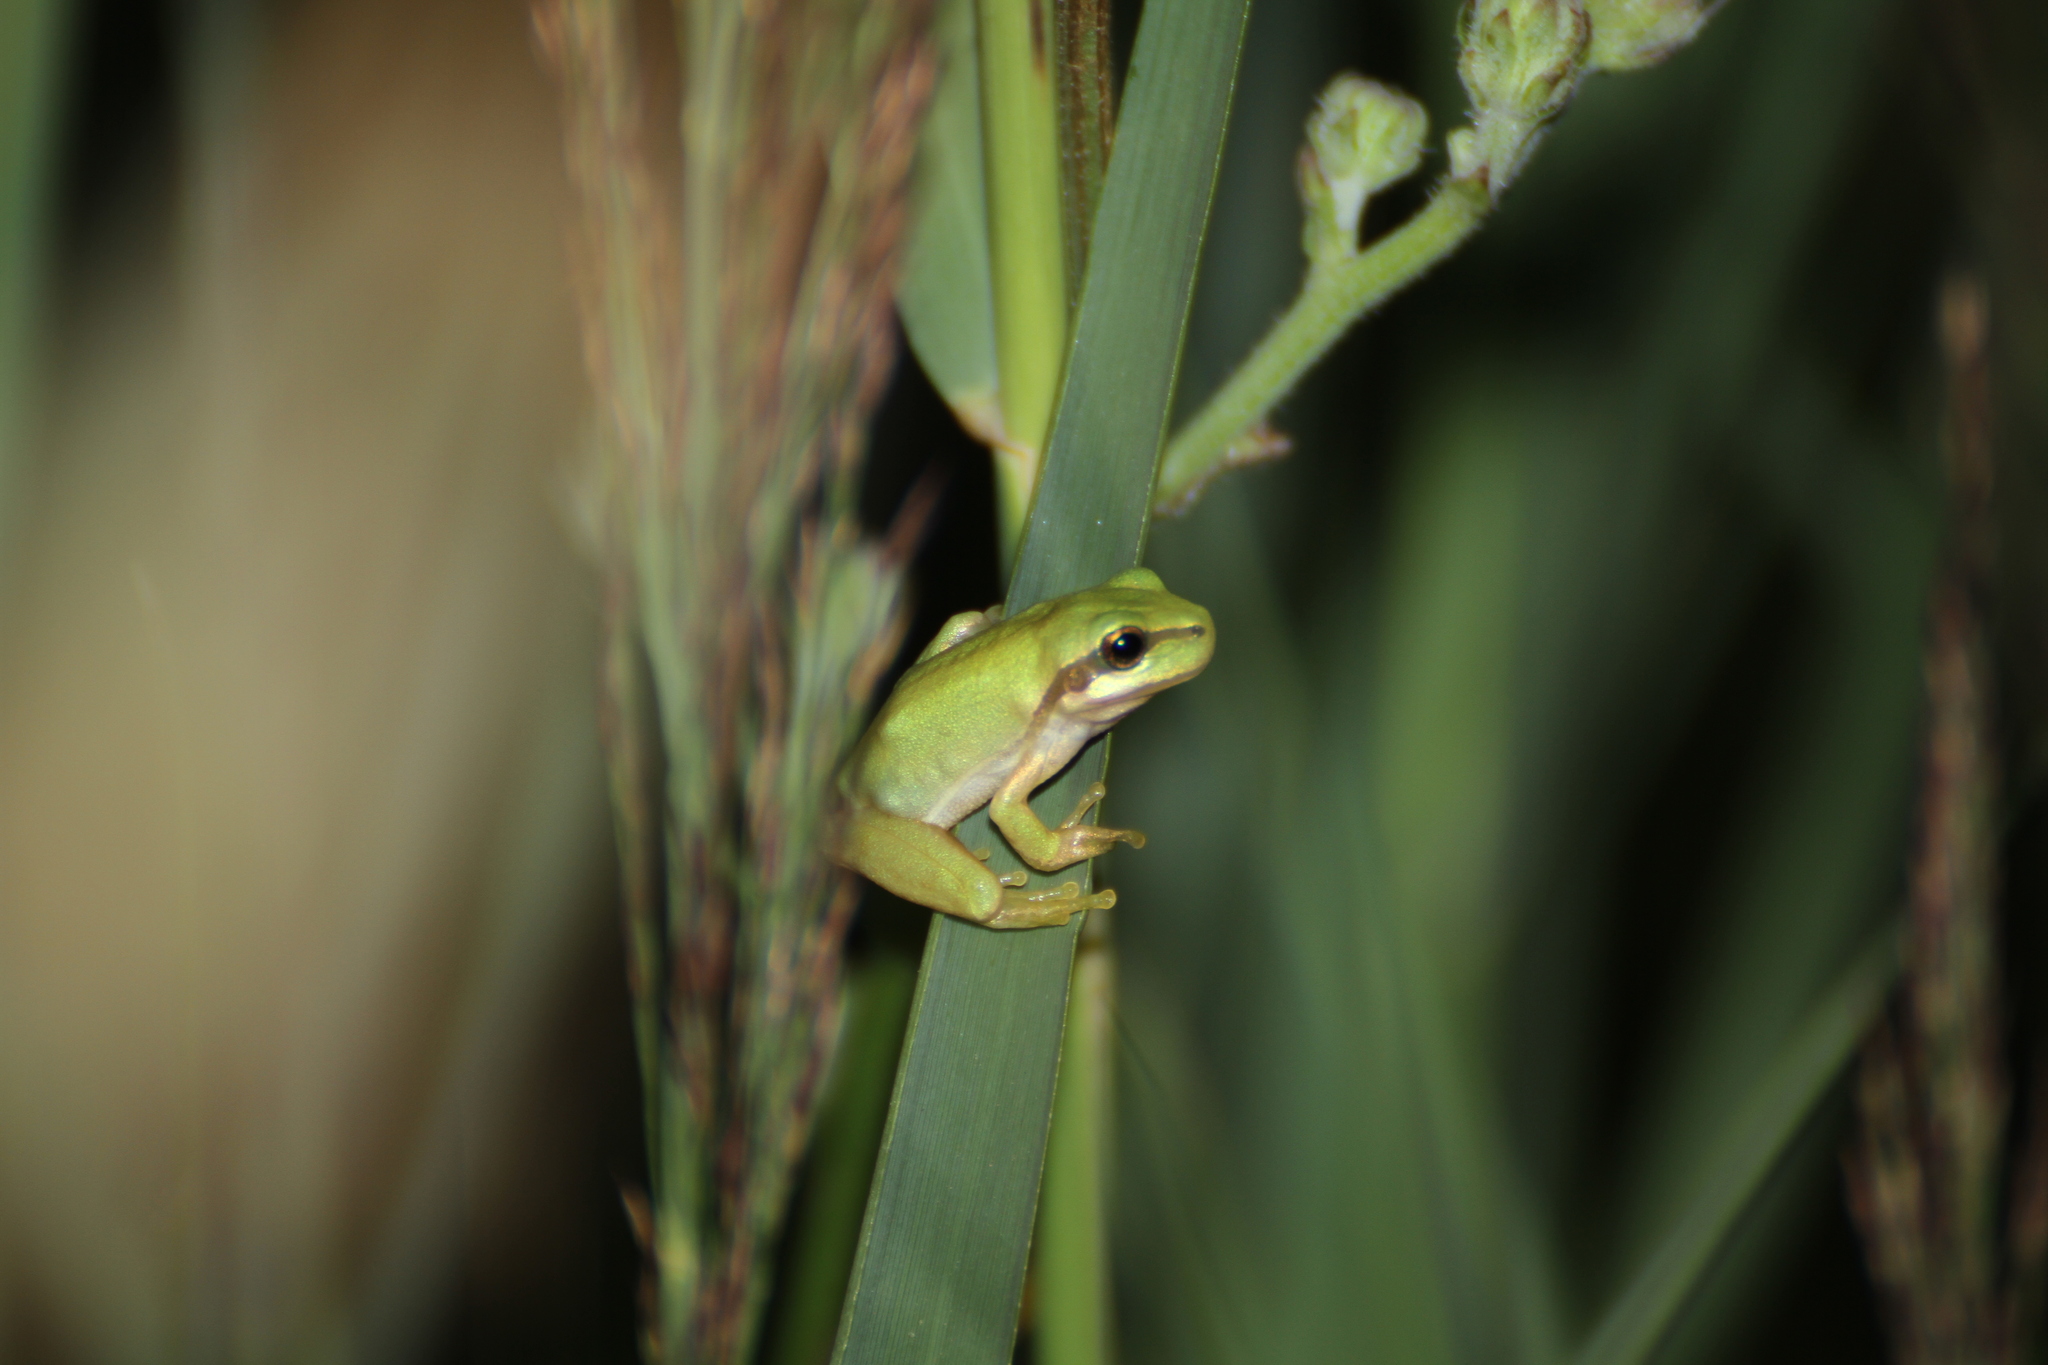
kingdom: Animalia
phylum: Chordata
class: Amphibia
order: Anura
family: Hylidae
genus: Hyla
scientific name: Hyla meridionalis
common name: Stripeless tree frog
